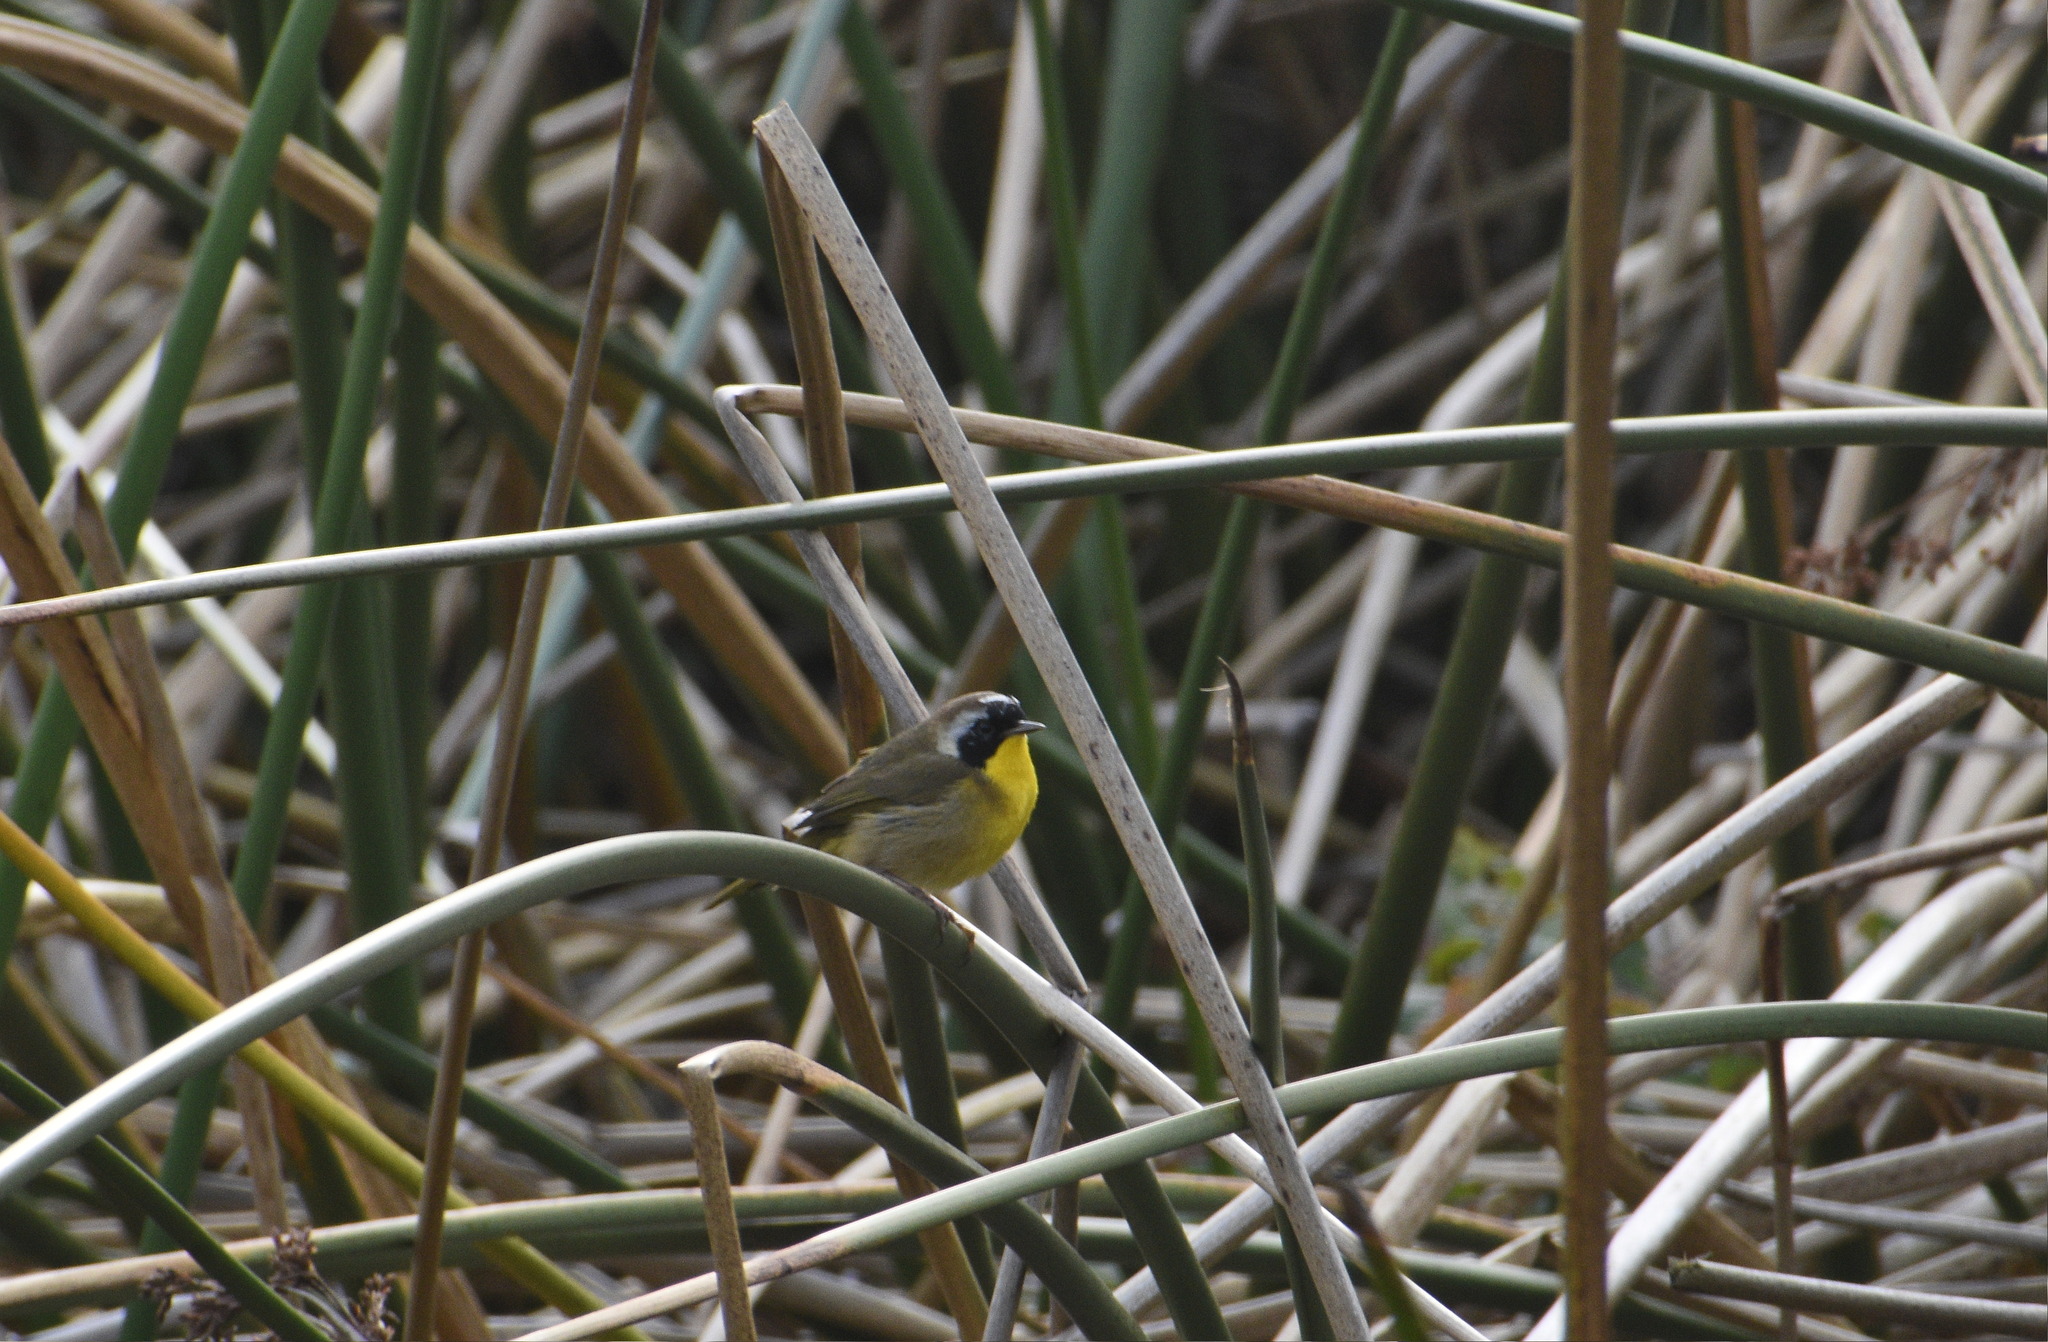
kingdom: Animalia
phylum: Chordata
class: Aves
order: Passeriformes
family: Parulidae
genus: Geothlypis
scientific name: Geothlypis trichas
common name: Common yellowthroat
